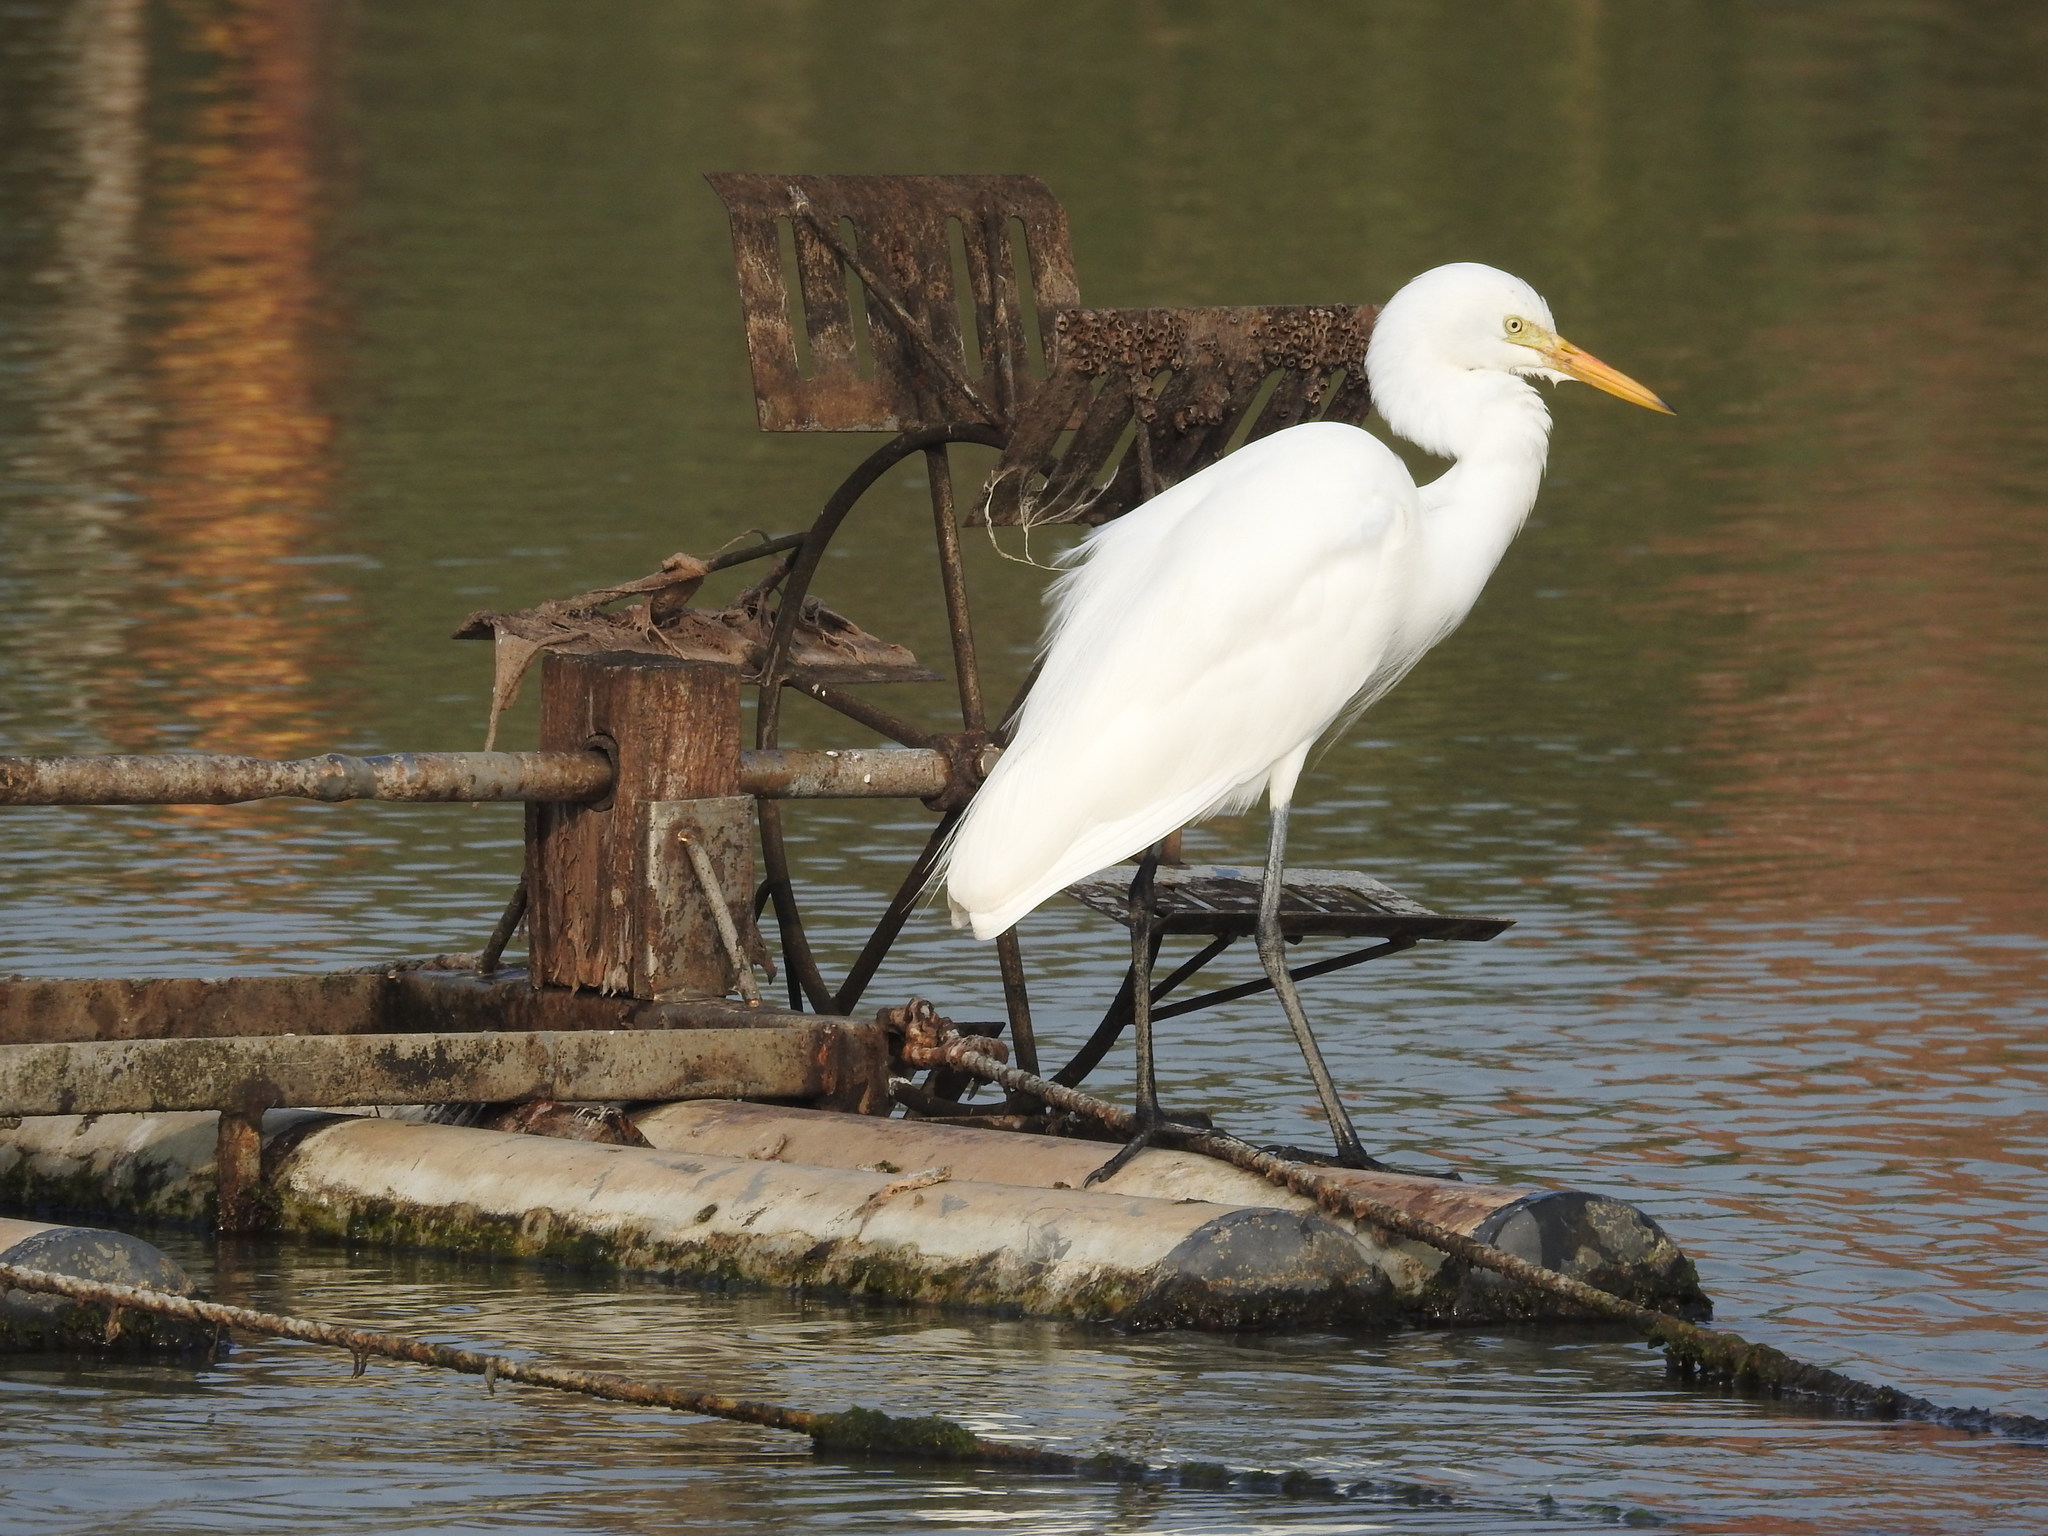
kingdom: Animalia
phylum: Chordata
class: Aves
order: Pelecaniformes
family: Ardeidae
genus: Egretta
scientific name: Egretta intermedia
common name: Intermediate egret
